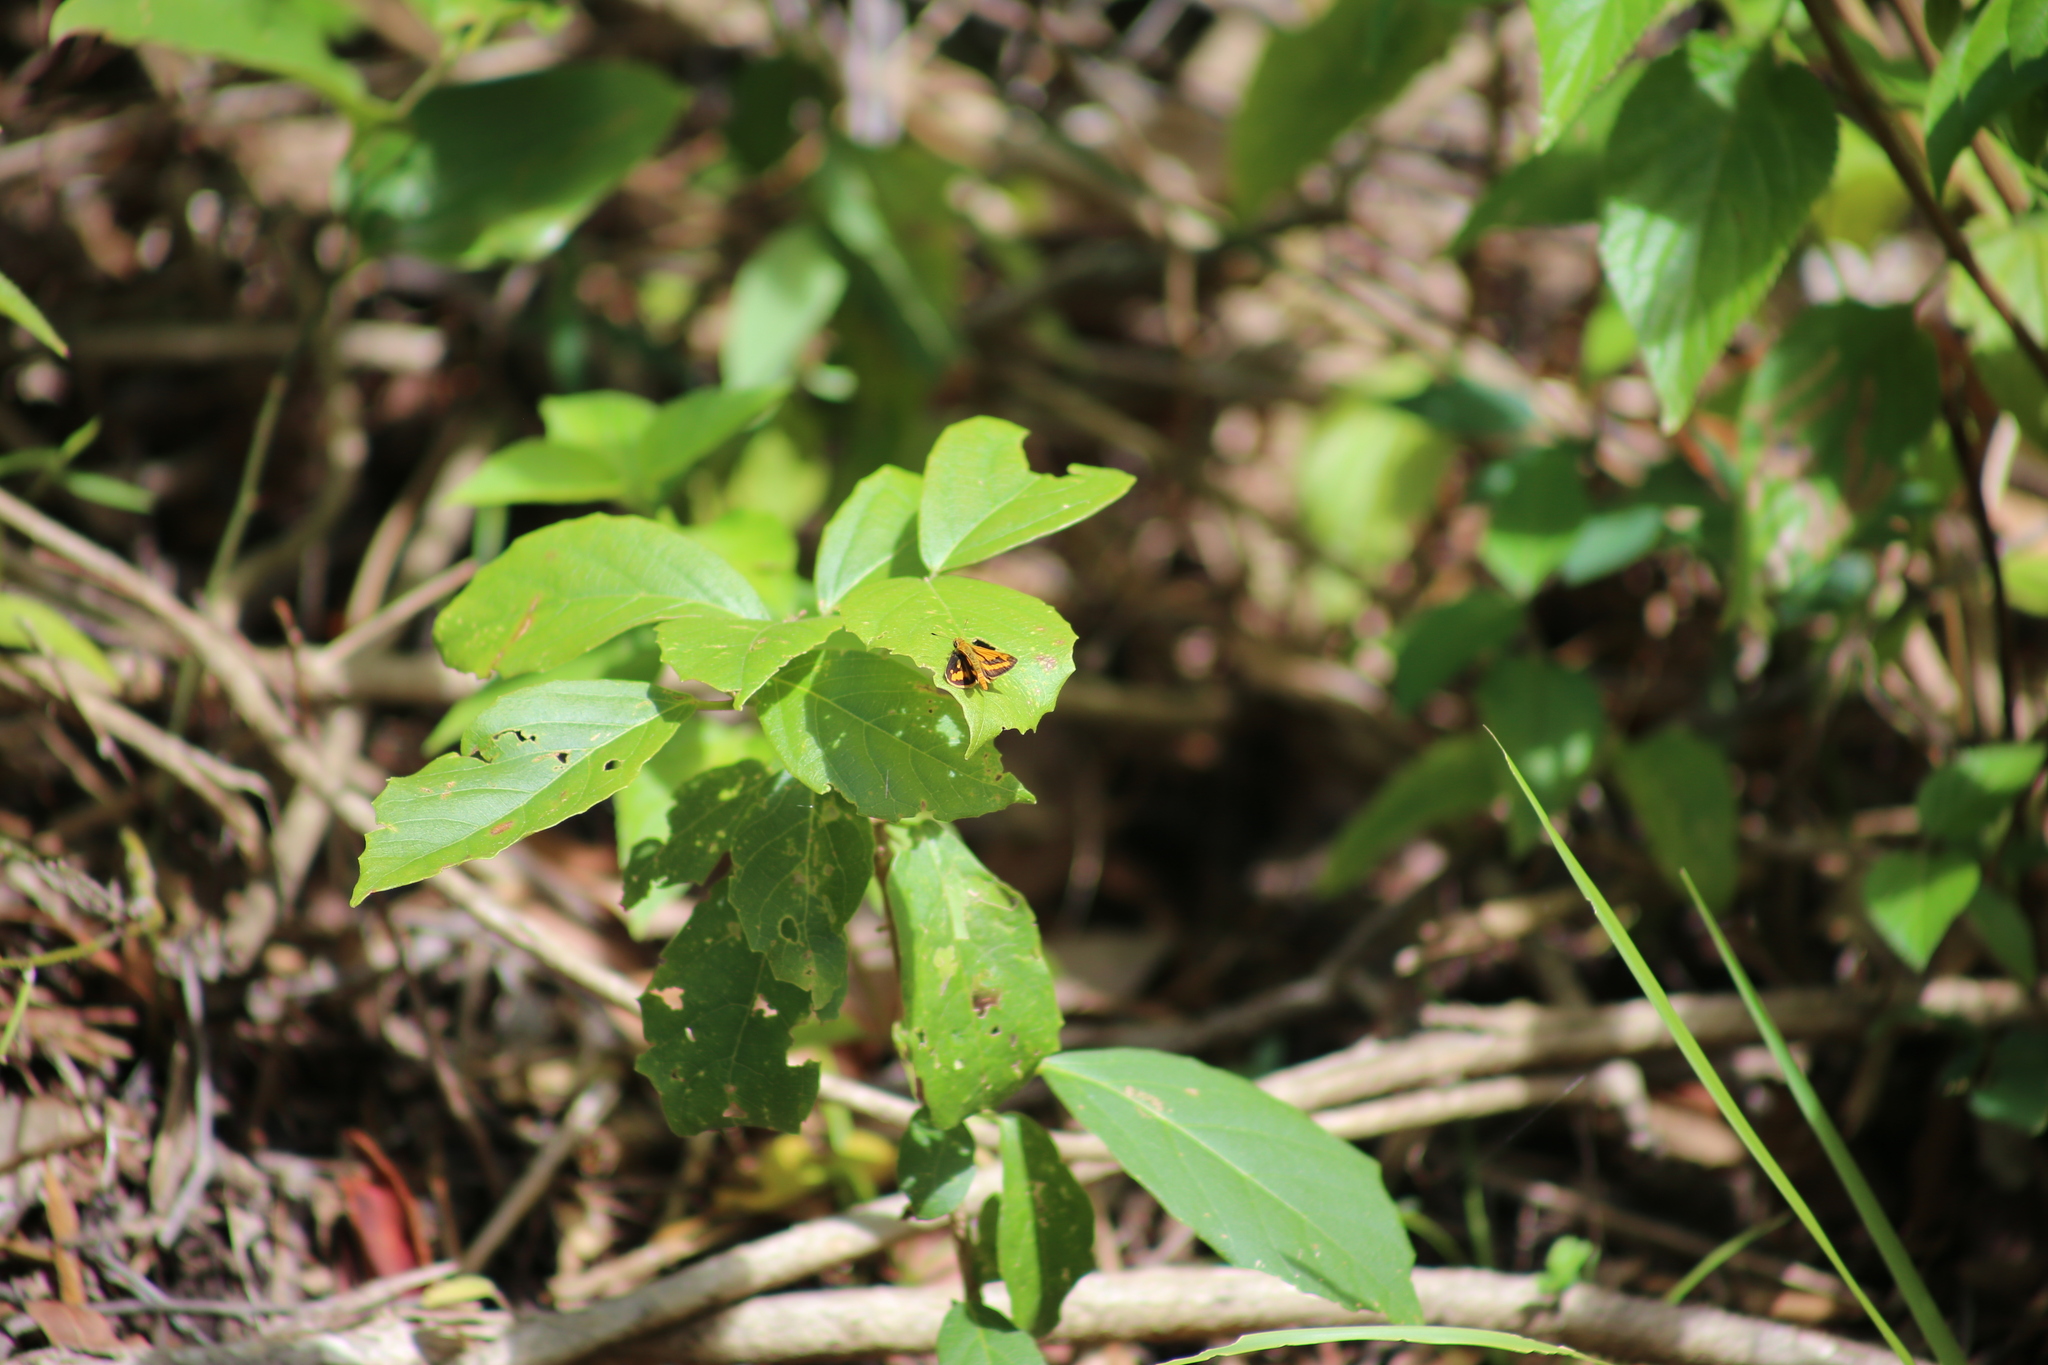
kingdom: Animalia
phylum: Arthropoda
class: Insecta
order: Lepidoptera
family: Hesperiidae
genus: Ocybadistes
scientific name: Ocybadistes walkeri
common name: Yellow-banded dart
